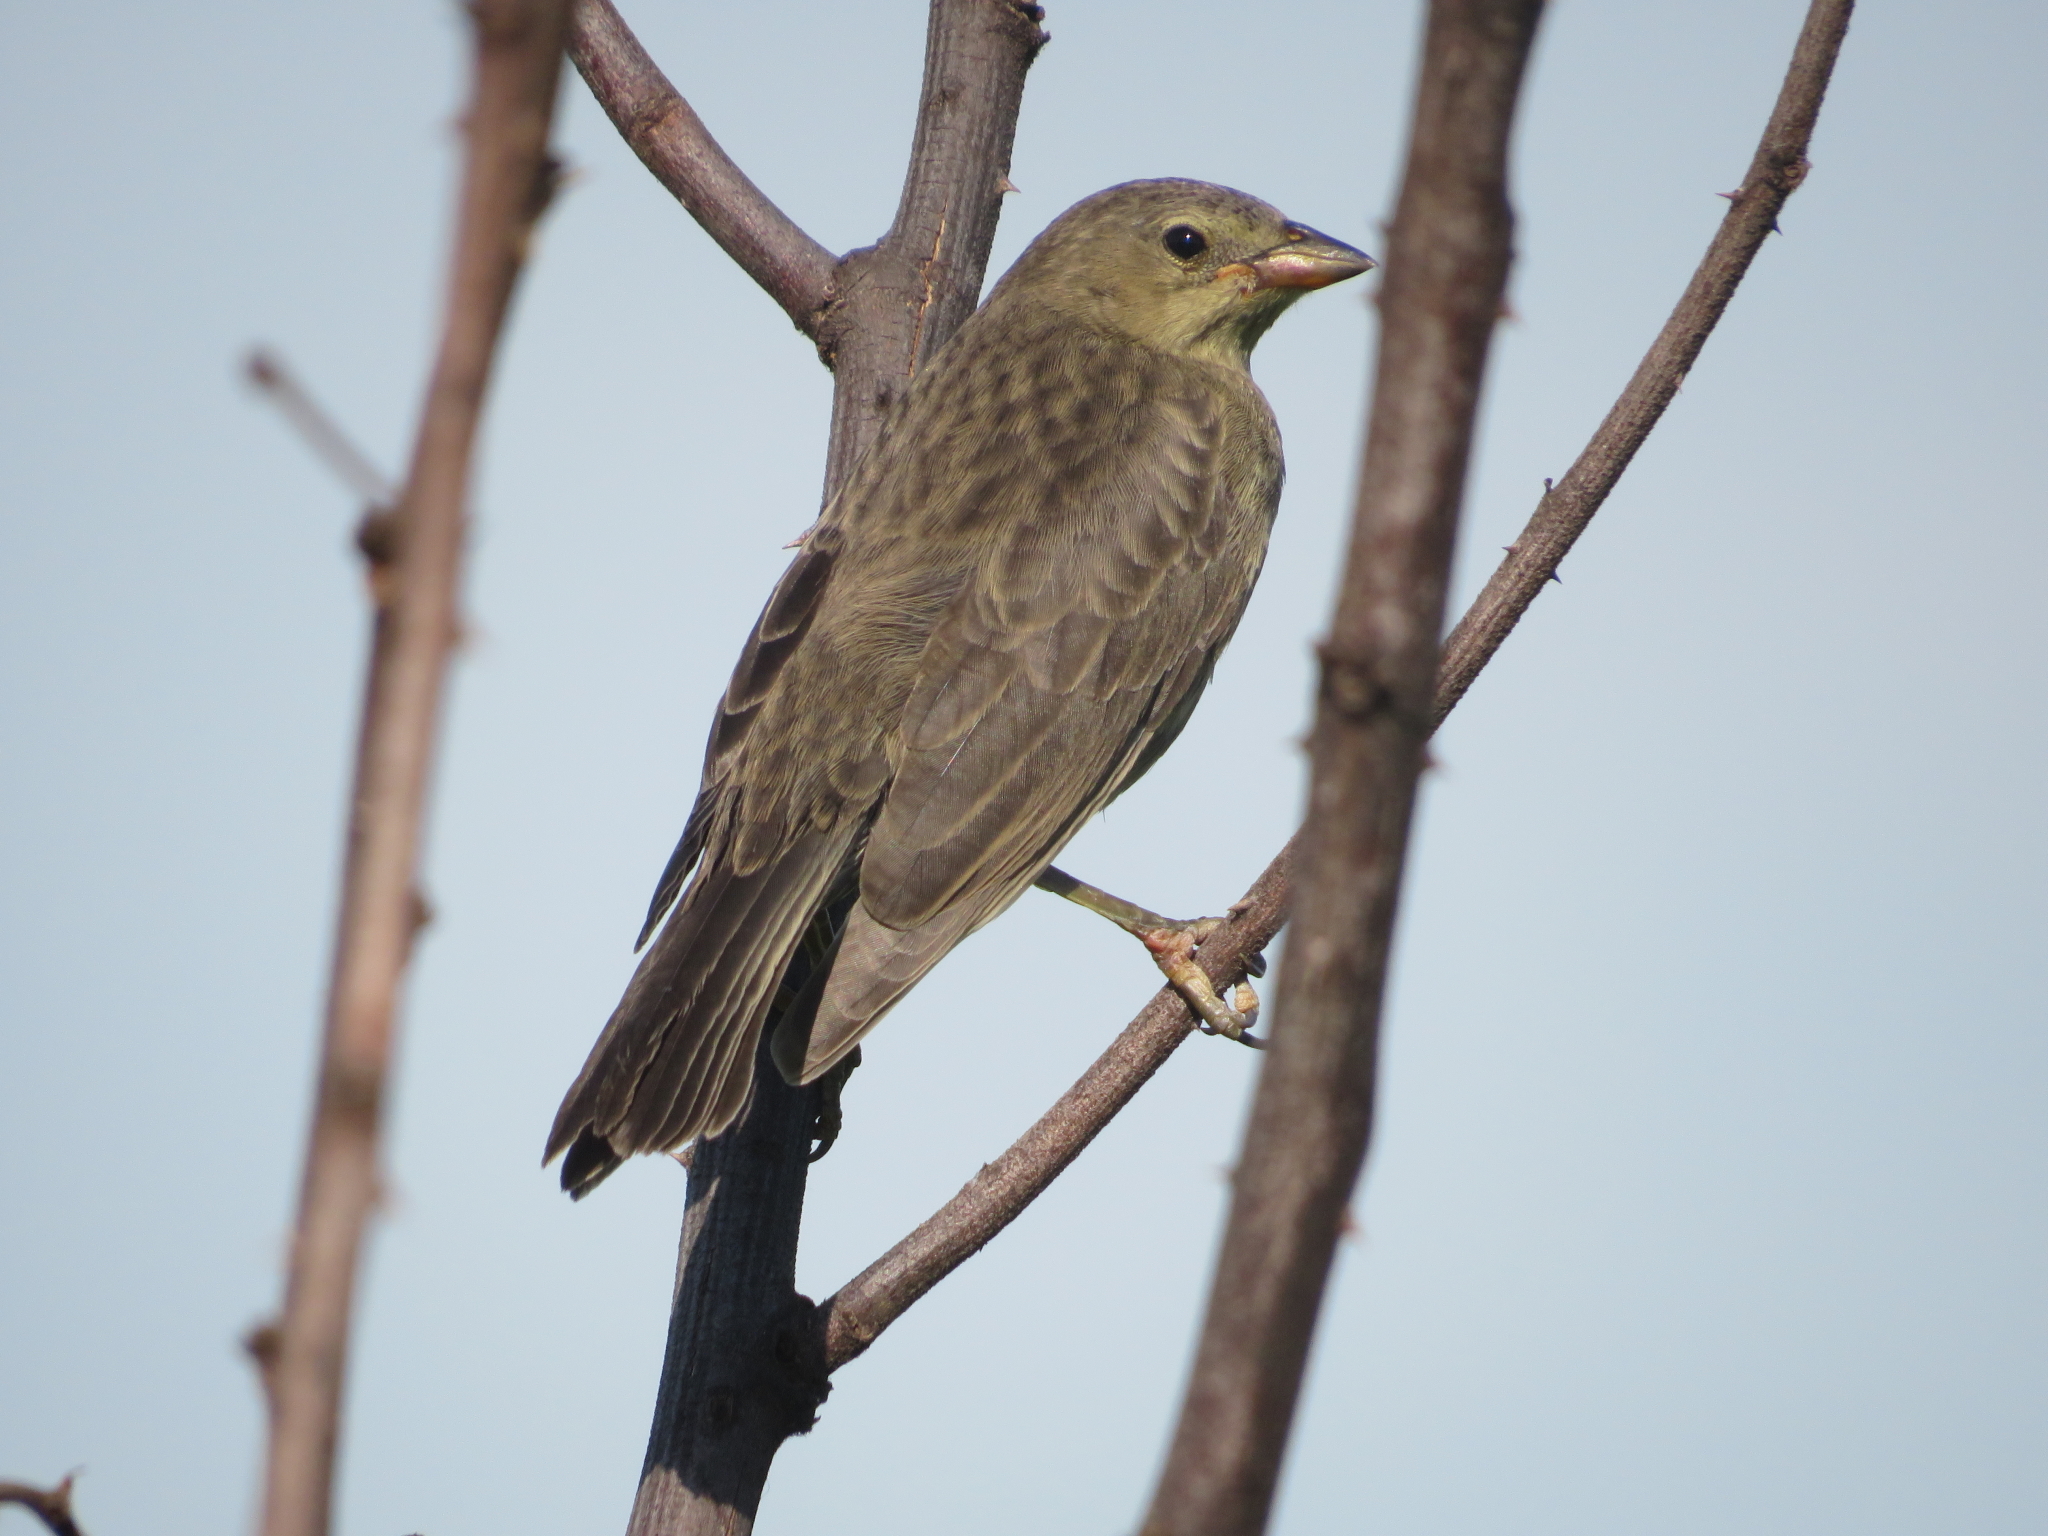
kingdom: Animalia
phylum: Chordata
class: Aves
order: Passeriformes
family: Icteridae
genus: Molothrus
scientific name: Molothrus bonariensis
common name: Shiny cowbird
